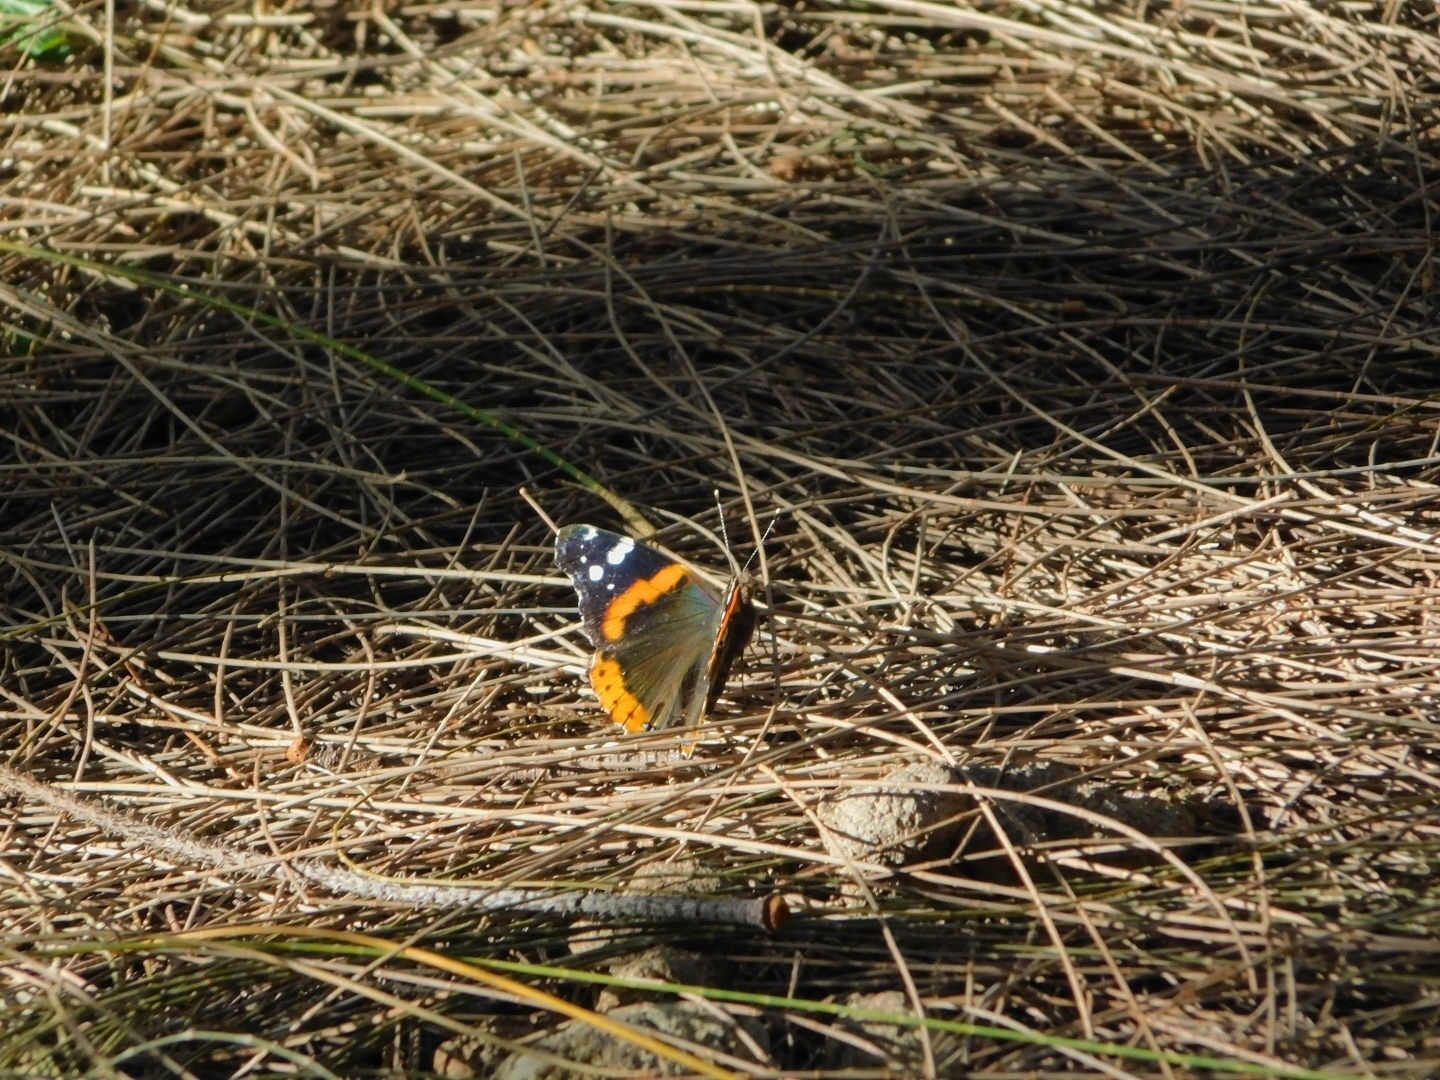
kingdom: Animalia
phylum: Arthropoda
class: Insecta
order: Lepidoptera
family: Nymphalidae
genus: Vanessa
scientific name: Vanessa atalanta
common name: Red admiral
